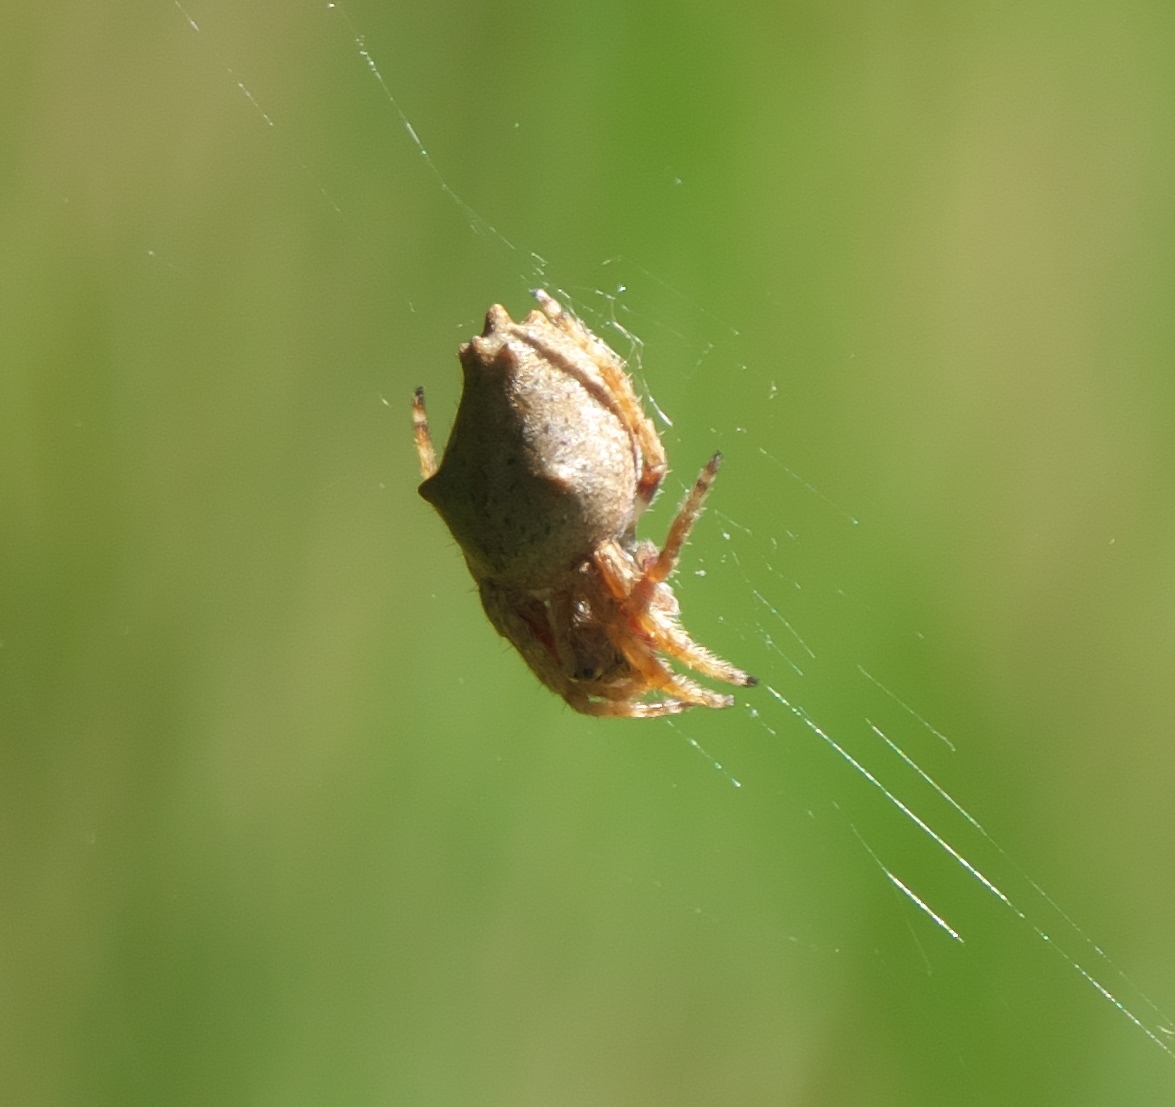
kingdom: Animalia
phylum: Arthropoda
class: Arachnida
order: Araneae
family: Araneidae
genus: Eriophora
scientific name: Eriophora pustulosa
